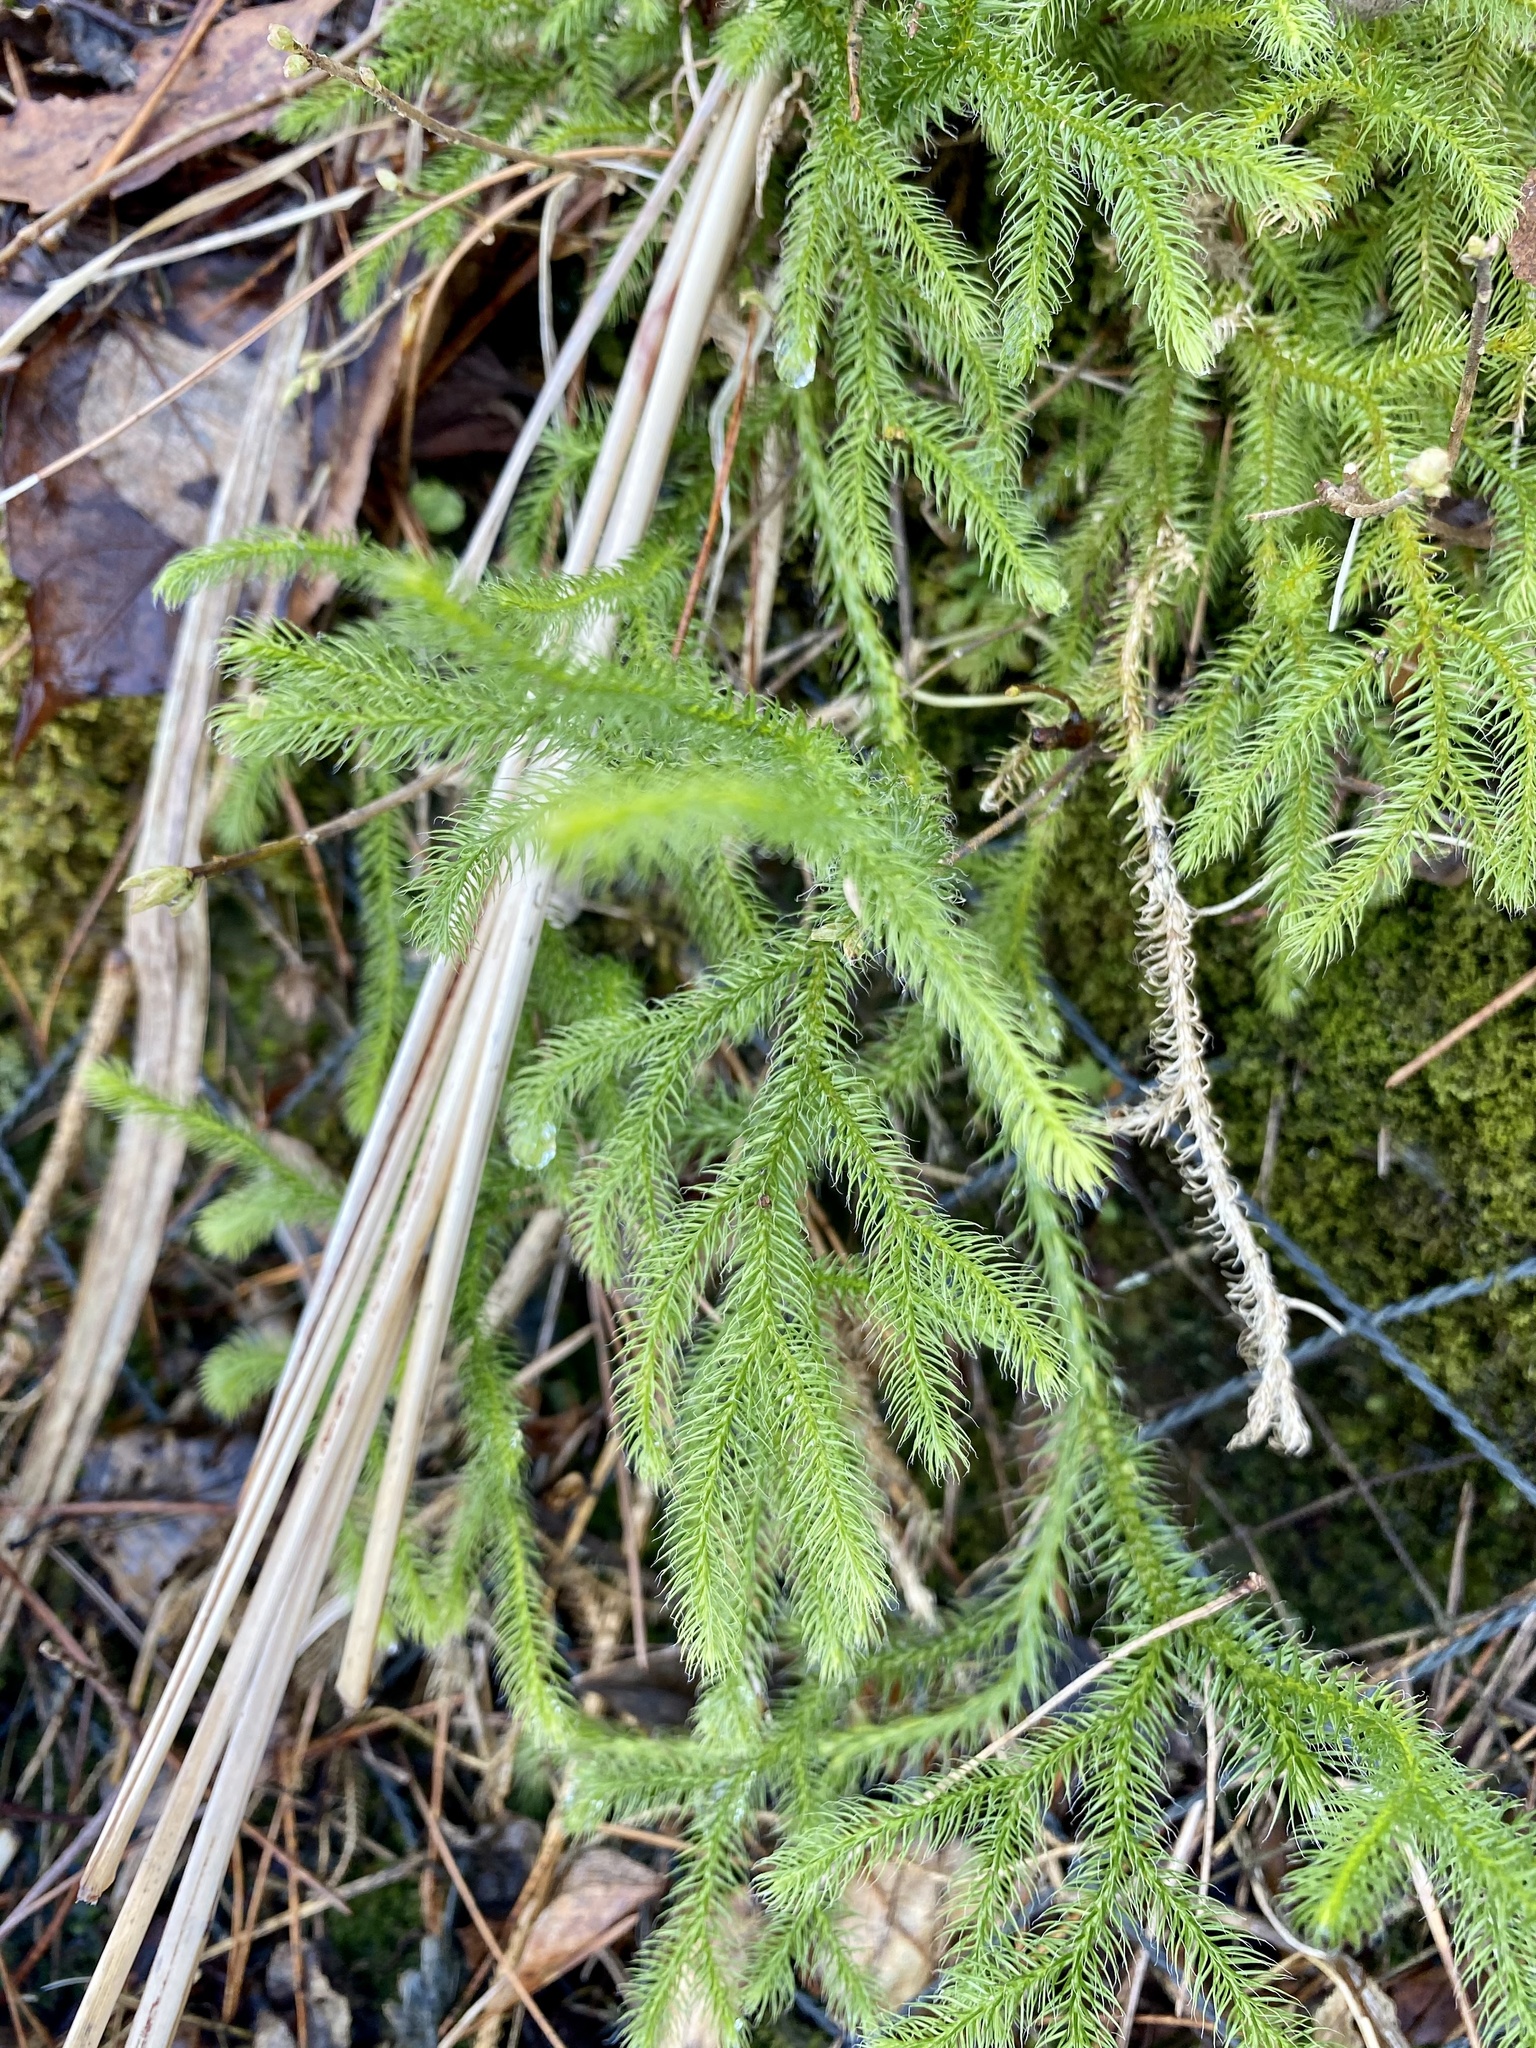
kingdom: Plantae
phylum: Tracheophyta
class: Lycopodiopsida
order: Lycopodiales
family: Lycopodiaceae
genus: Lycopodium
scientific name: Lycopodium clavatum
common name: Stag's-horn clubmoss
